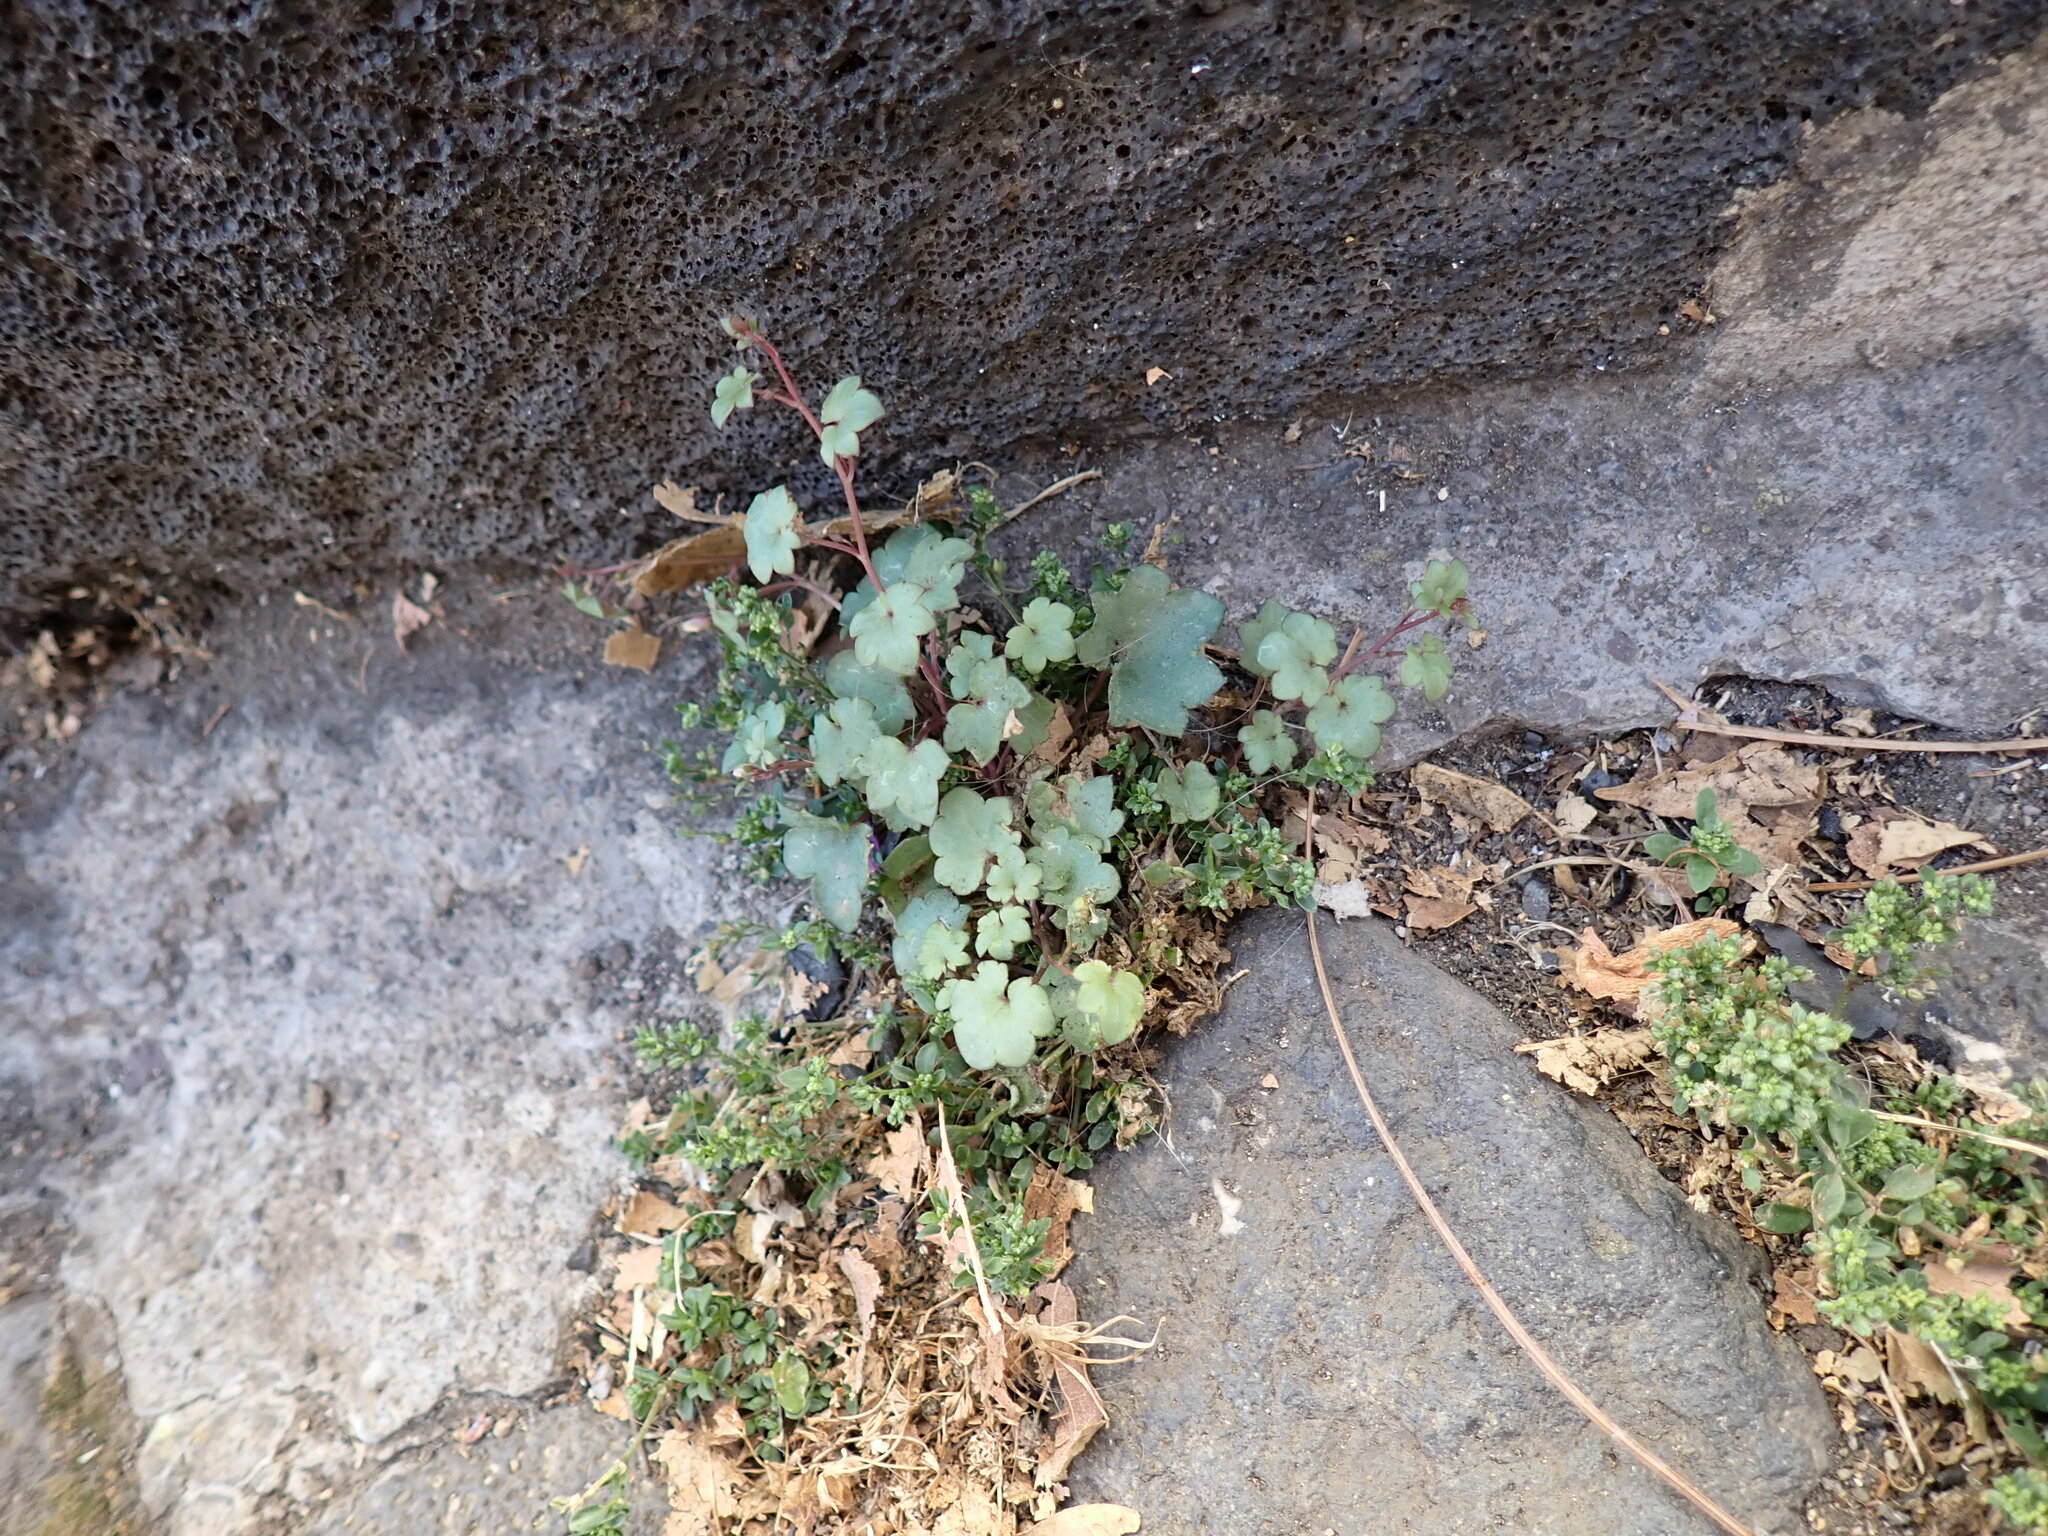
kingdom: Plantae
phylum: Tracheophyta
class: Magnoliopsida
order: Lamiales
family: Plantaginaceae
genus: Cymbalaria
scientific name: Cymbalaria muralis
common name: Ivy-leaved toadflax
